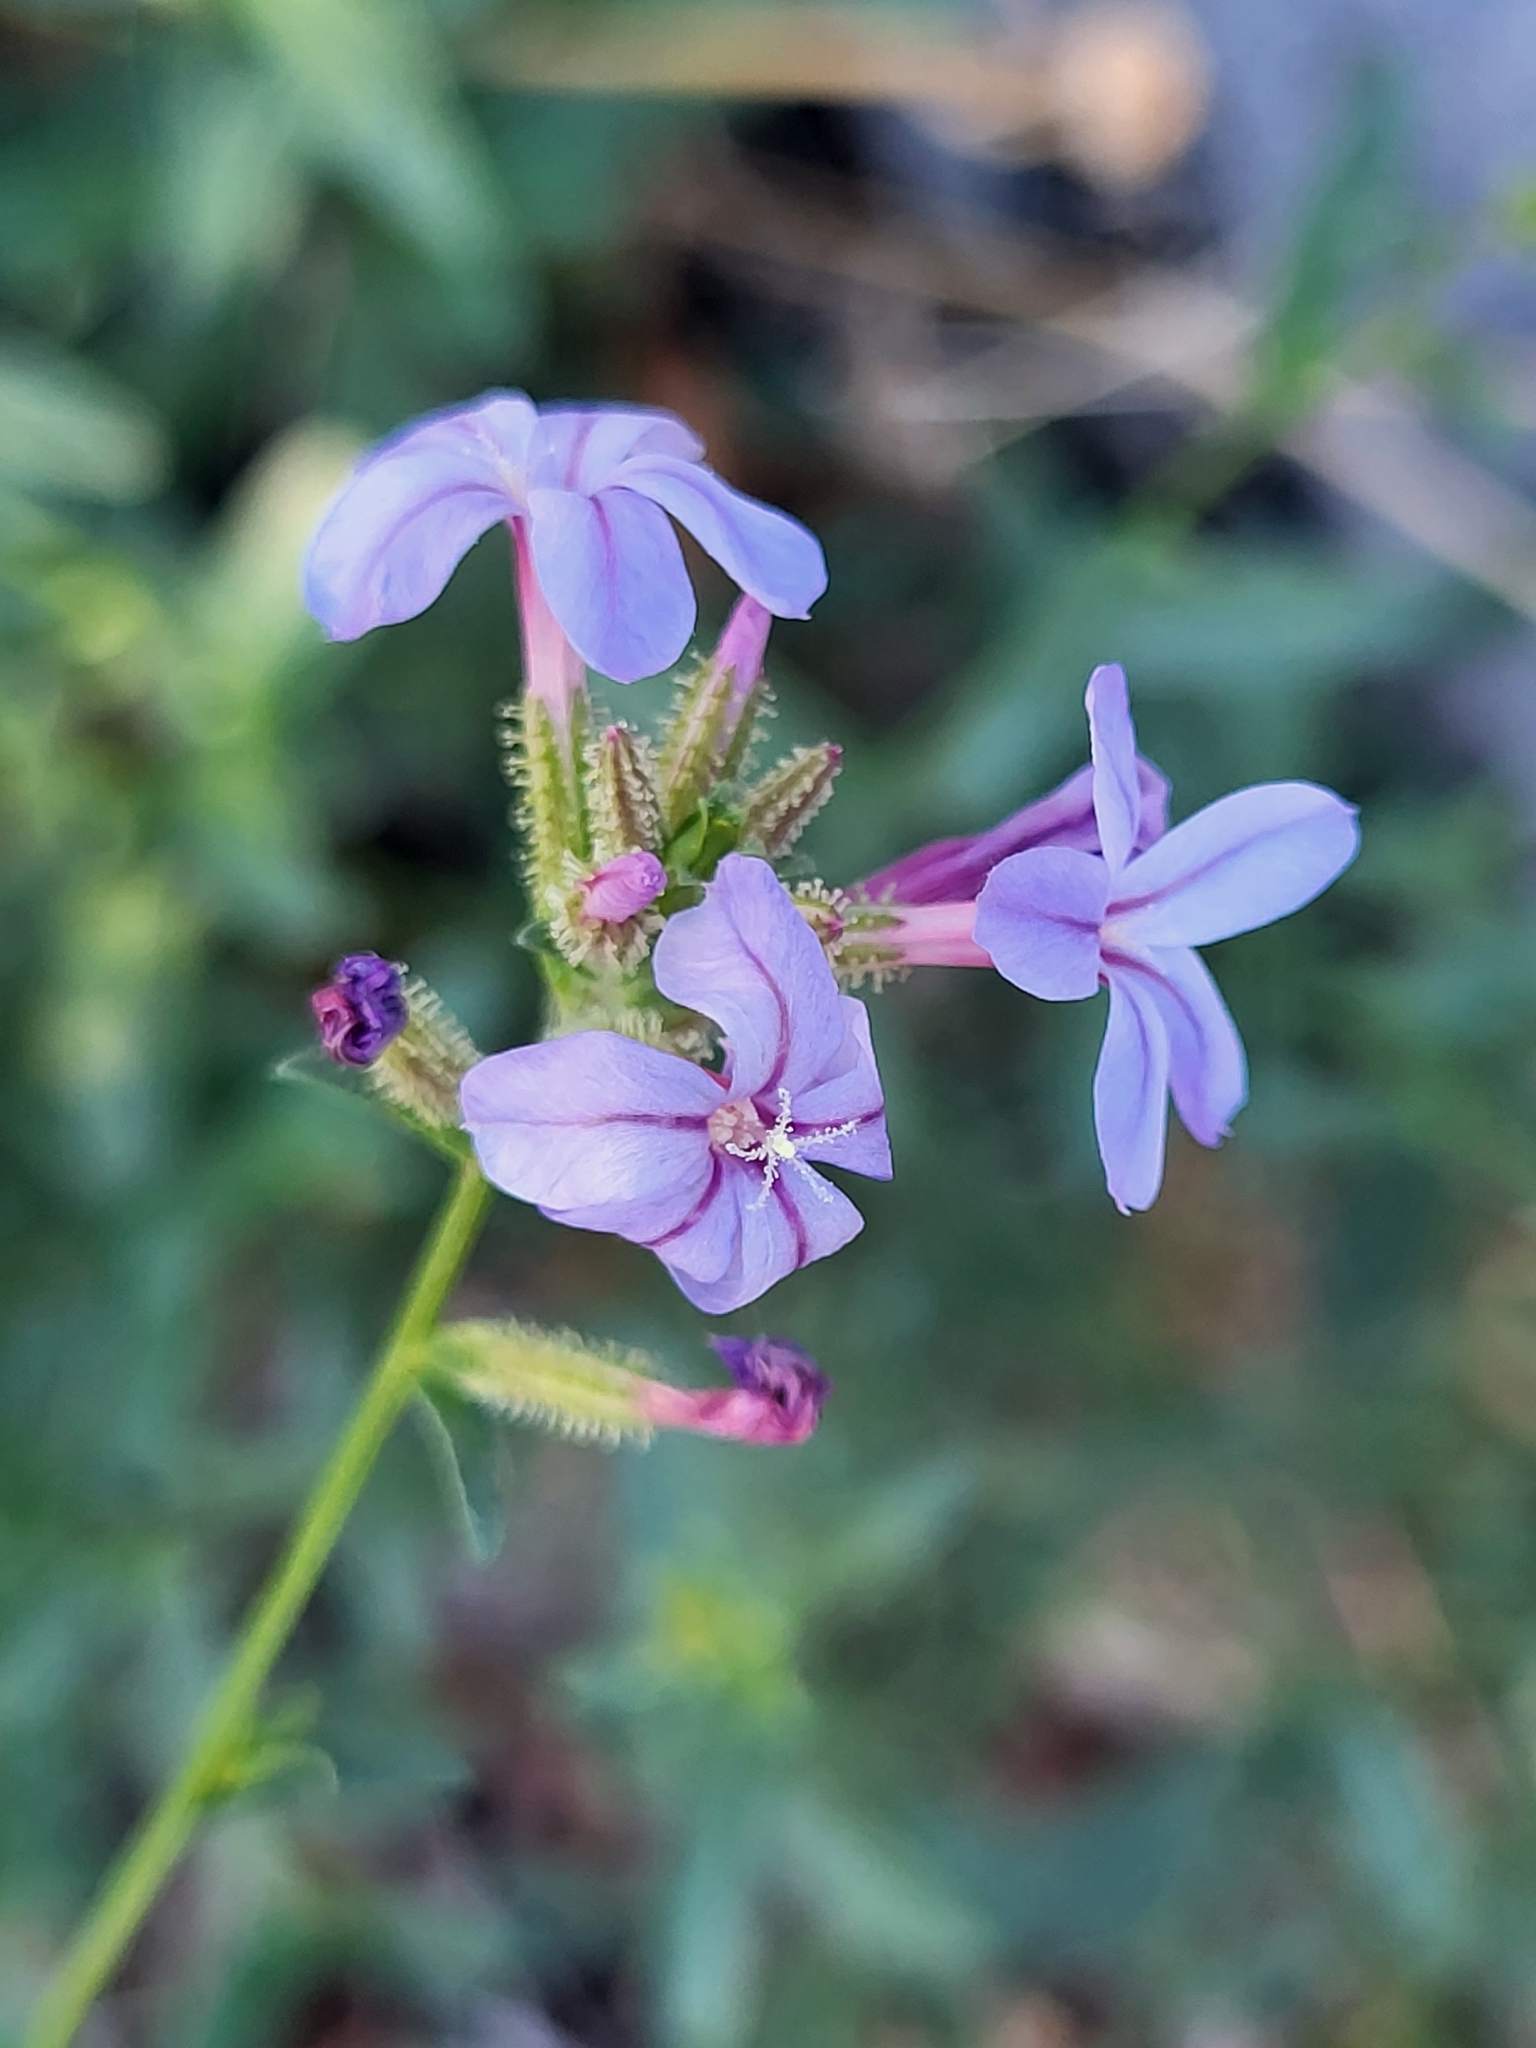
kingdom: Plantae
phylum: Tracheophyta
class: Magnoliopsida
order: Caryophyllales
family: Plumbaginaceae
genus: Plumbago
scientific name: Plumbago europaea
